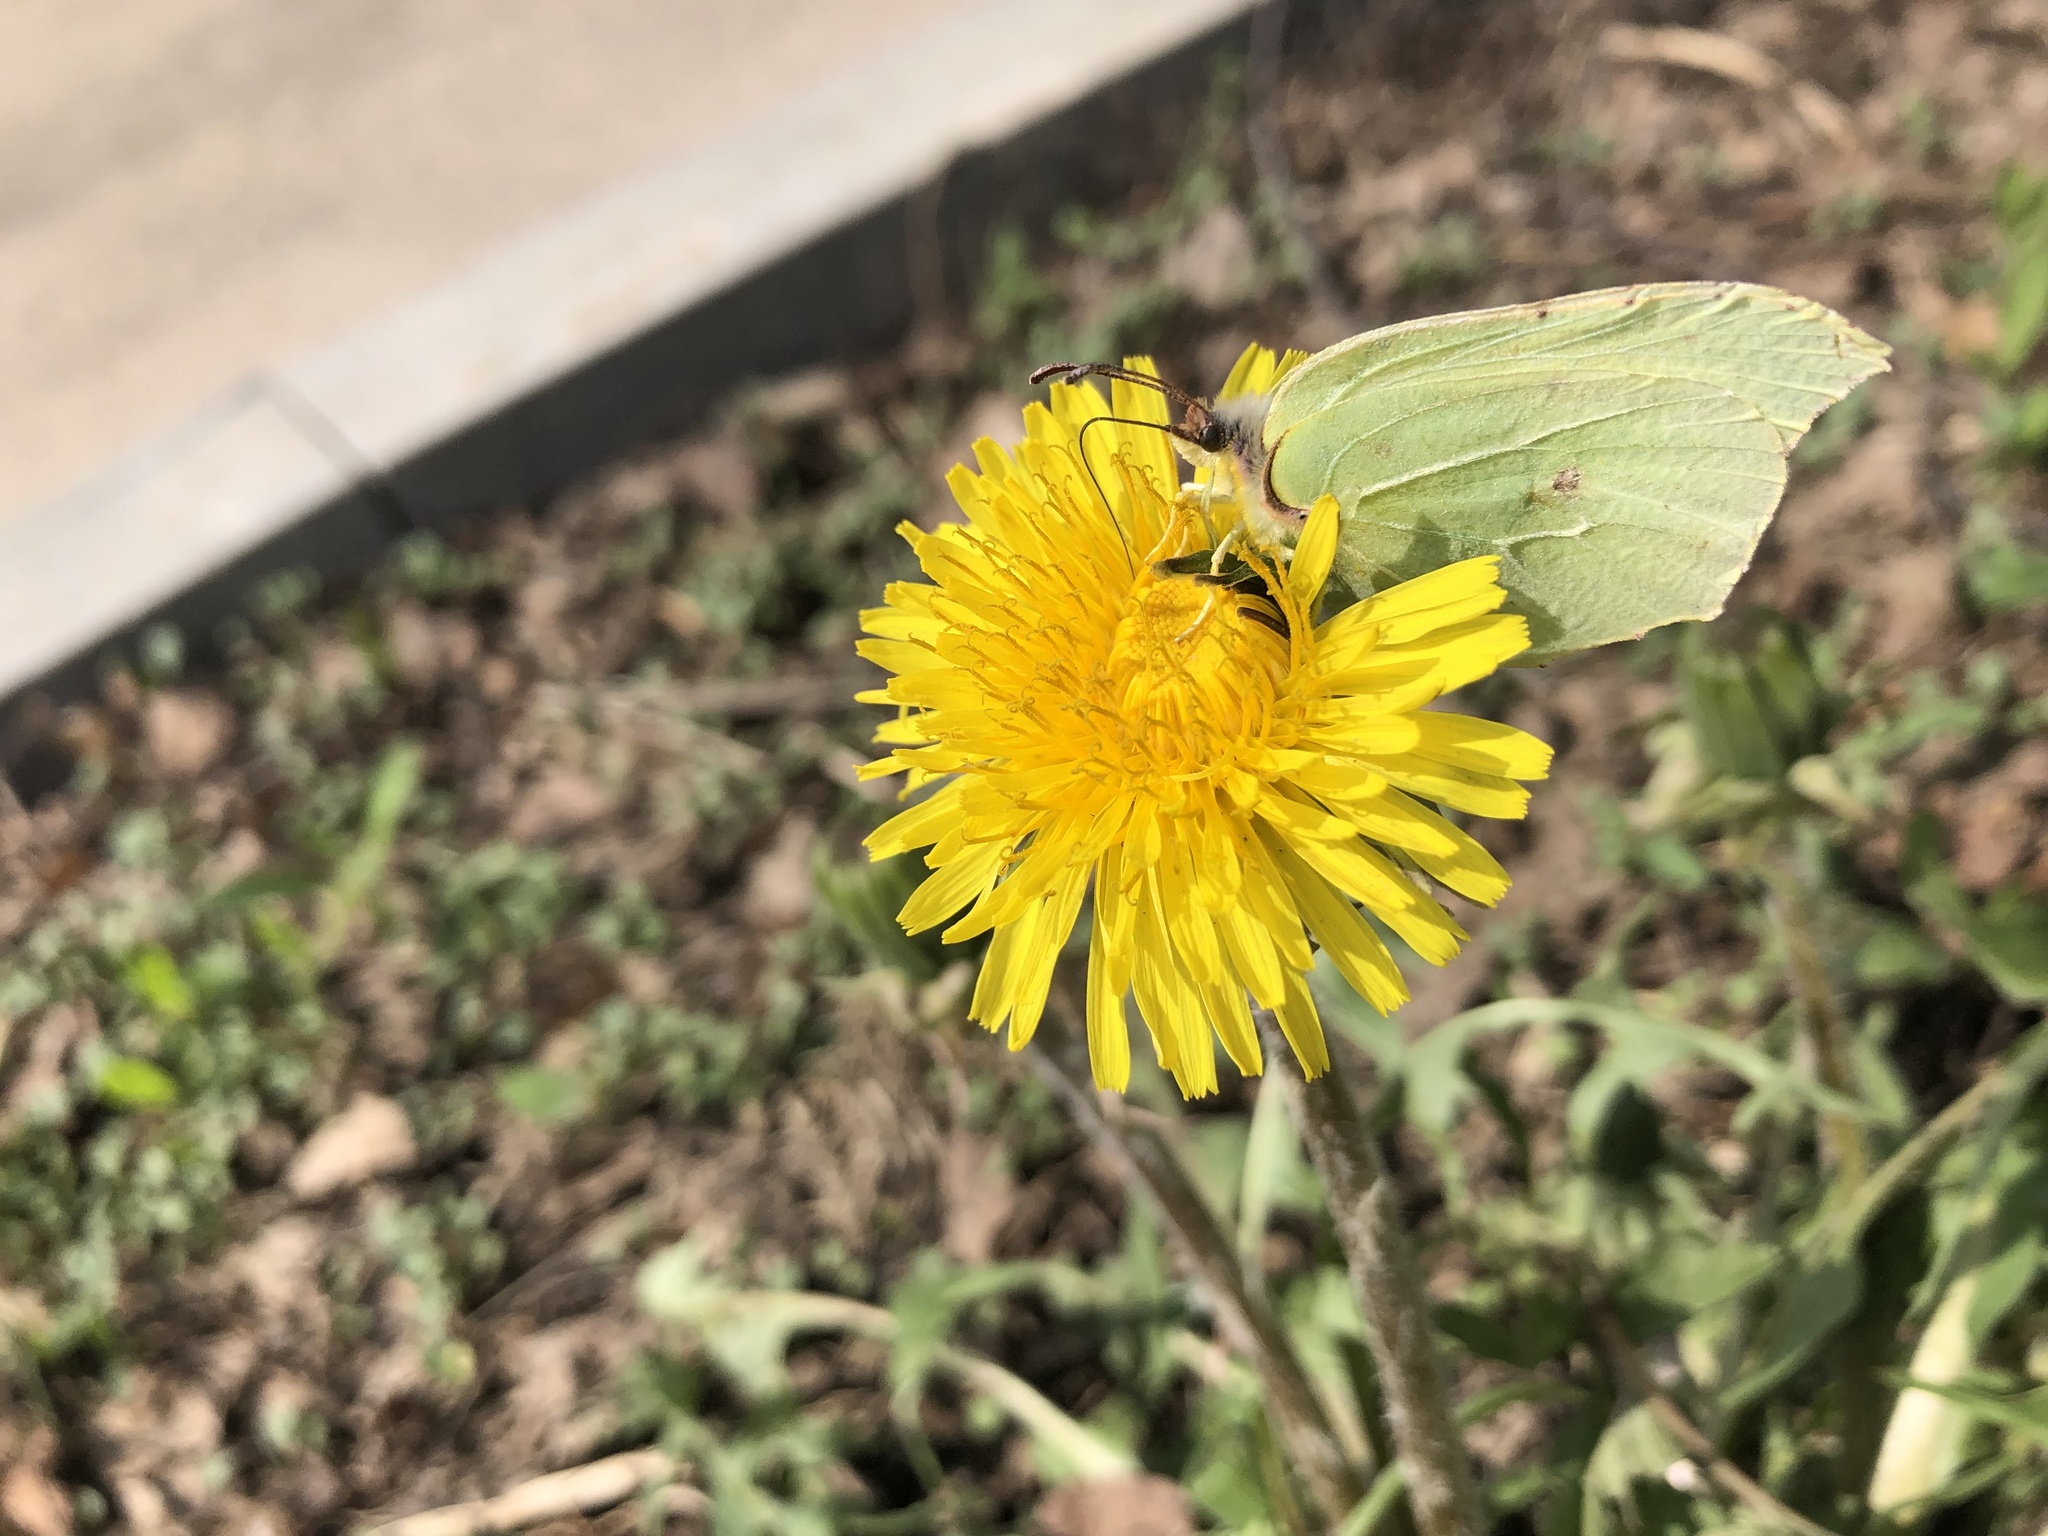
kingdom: Animalia
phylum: Arthropoda
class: Insecta
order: Lepidoptera
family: Pieridae
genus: Gonepteryx
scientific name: Gonepteryx rhamni
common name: Brimstone
